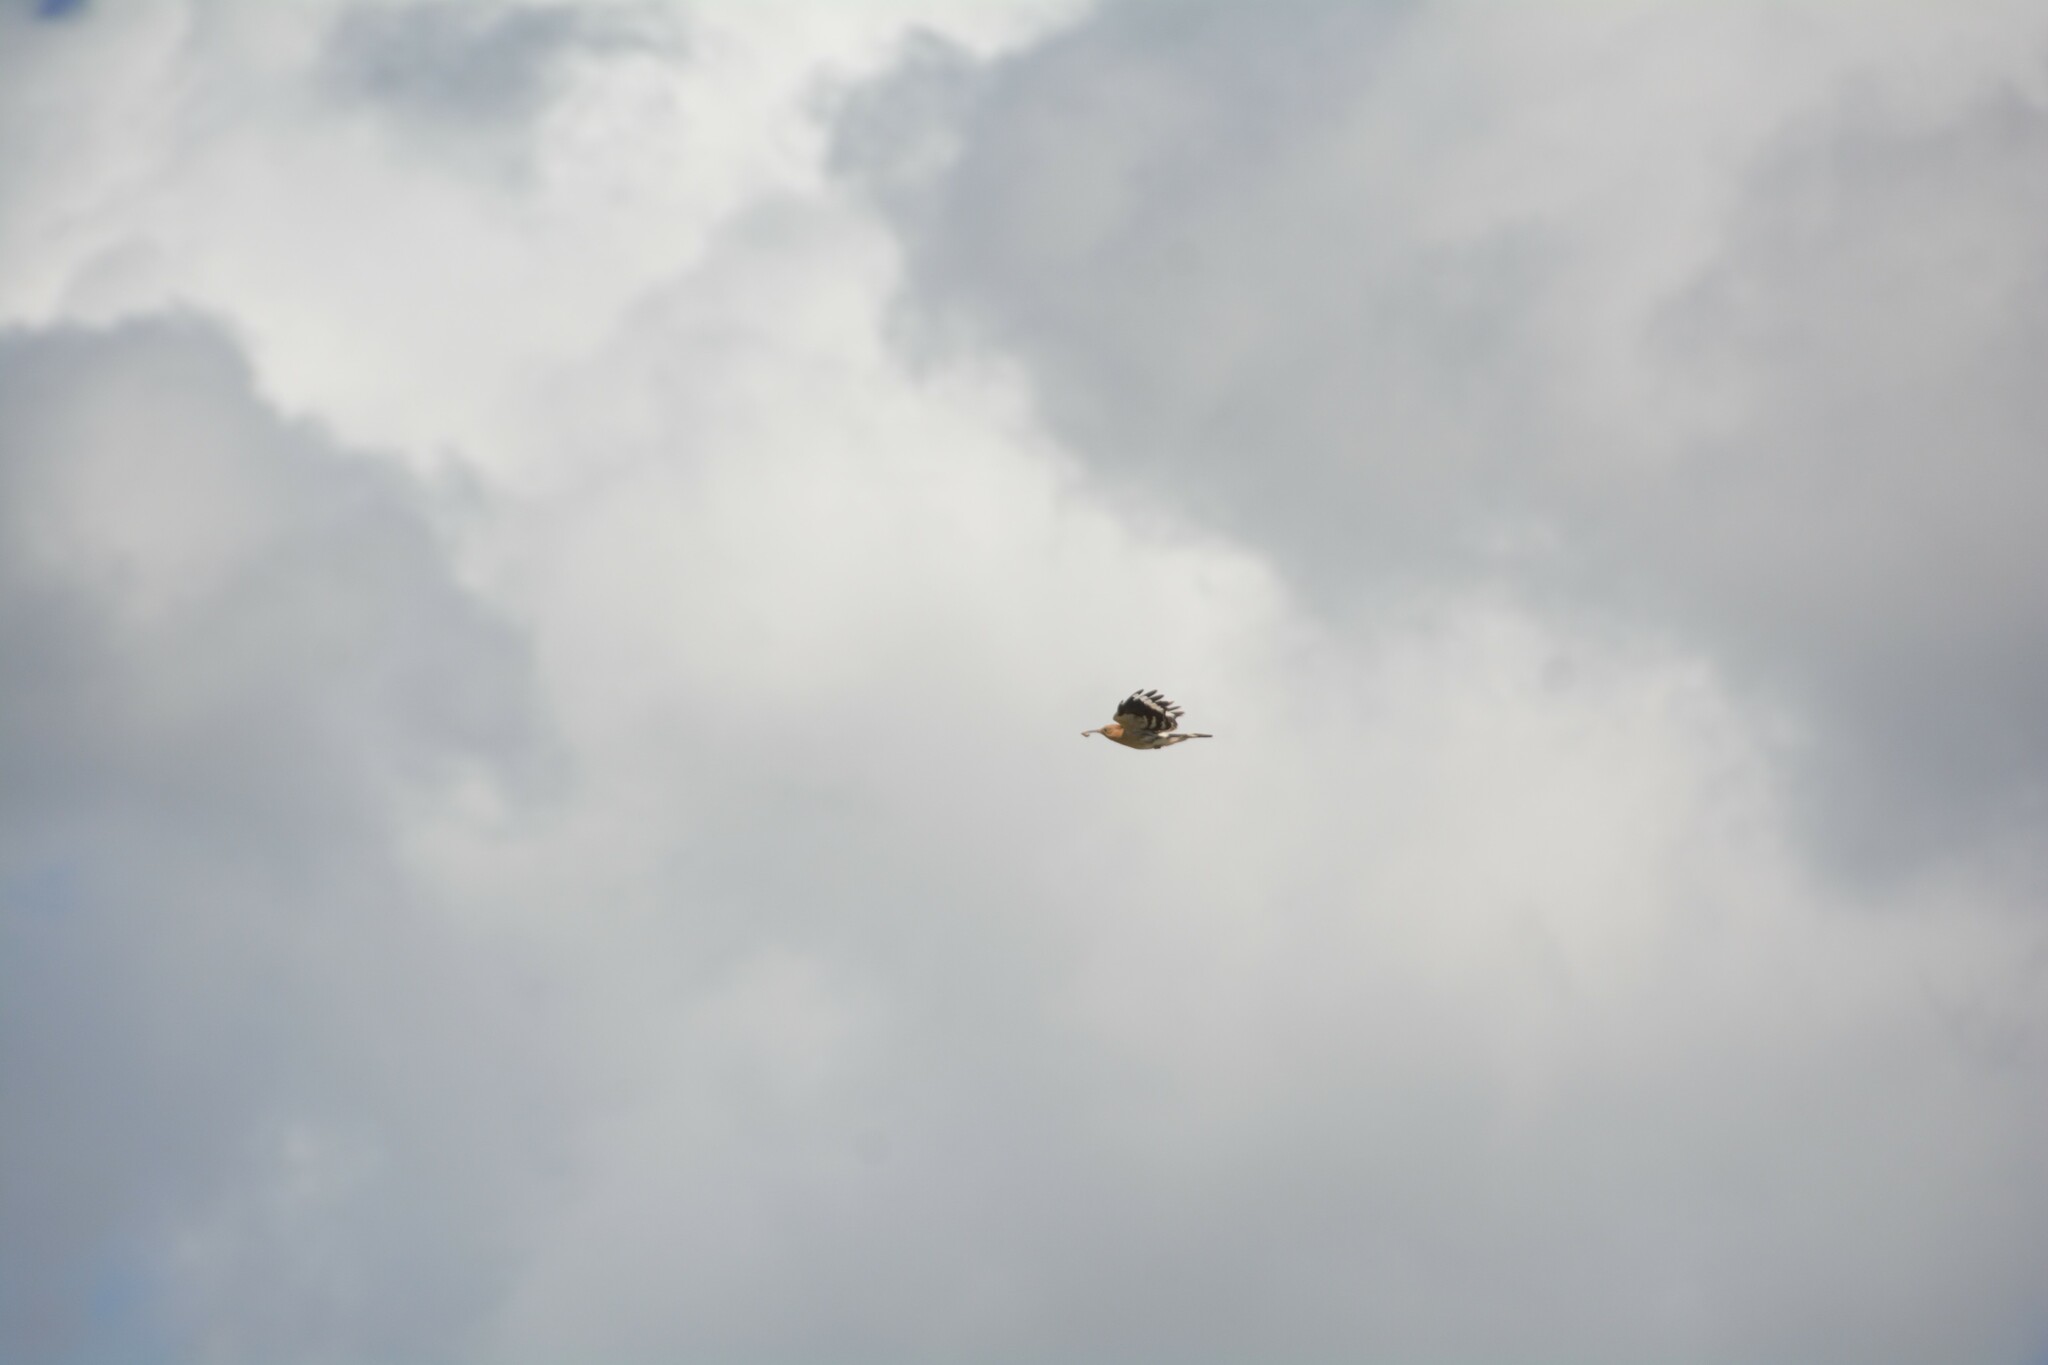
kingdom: Animalia
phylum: Chordata
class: Aves
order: Bucerotiformes
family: Upupidae
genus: Upupa
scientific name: Upupa epops
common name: Eurasian hoopoe
